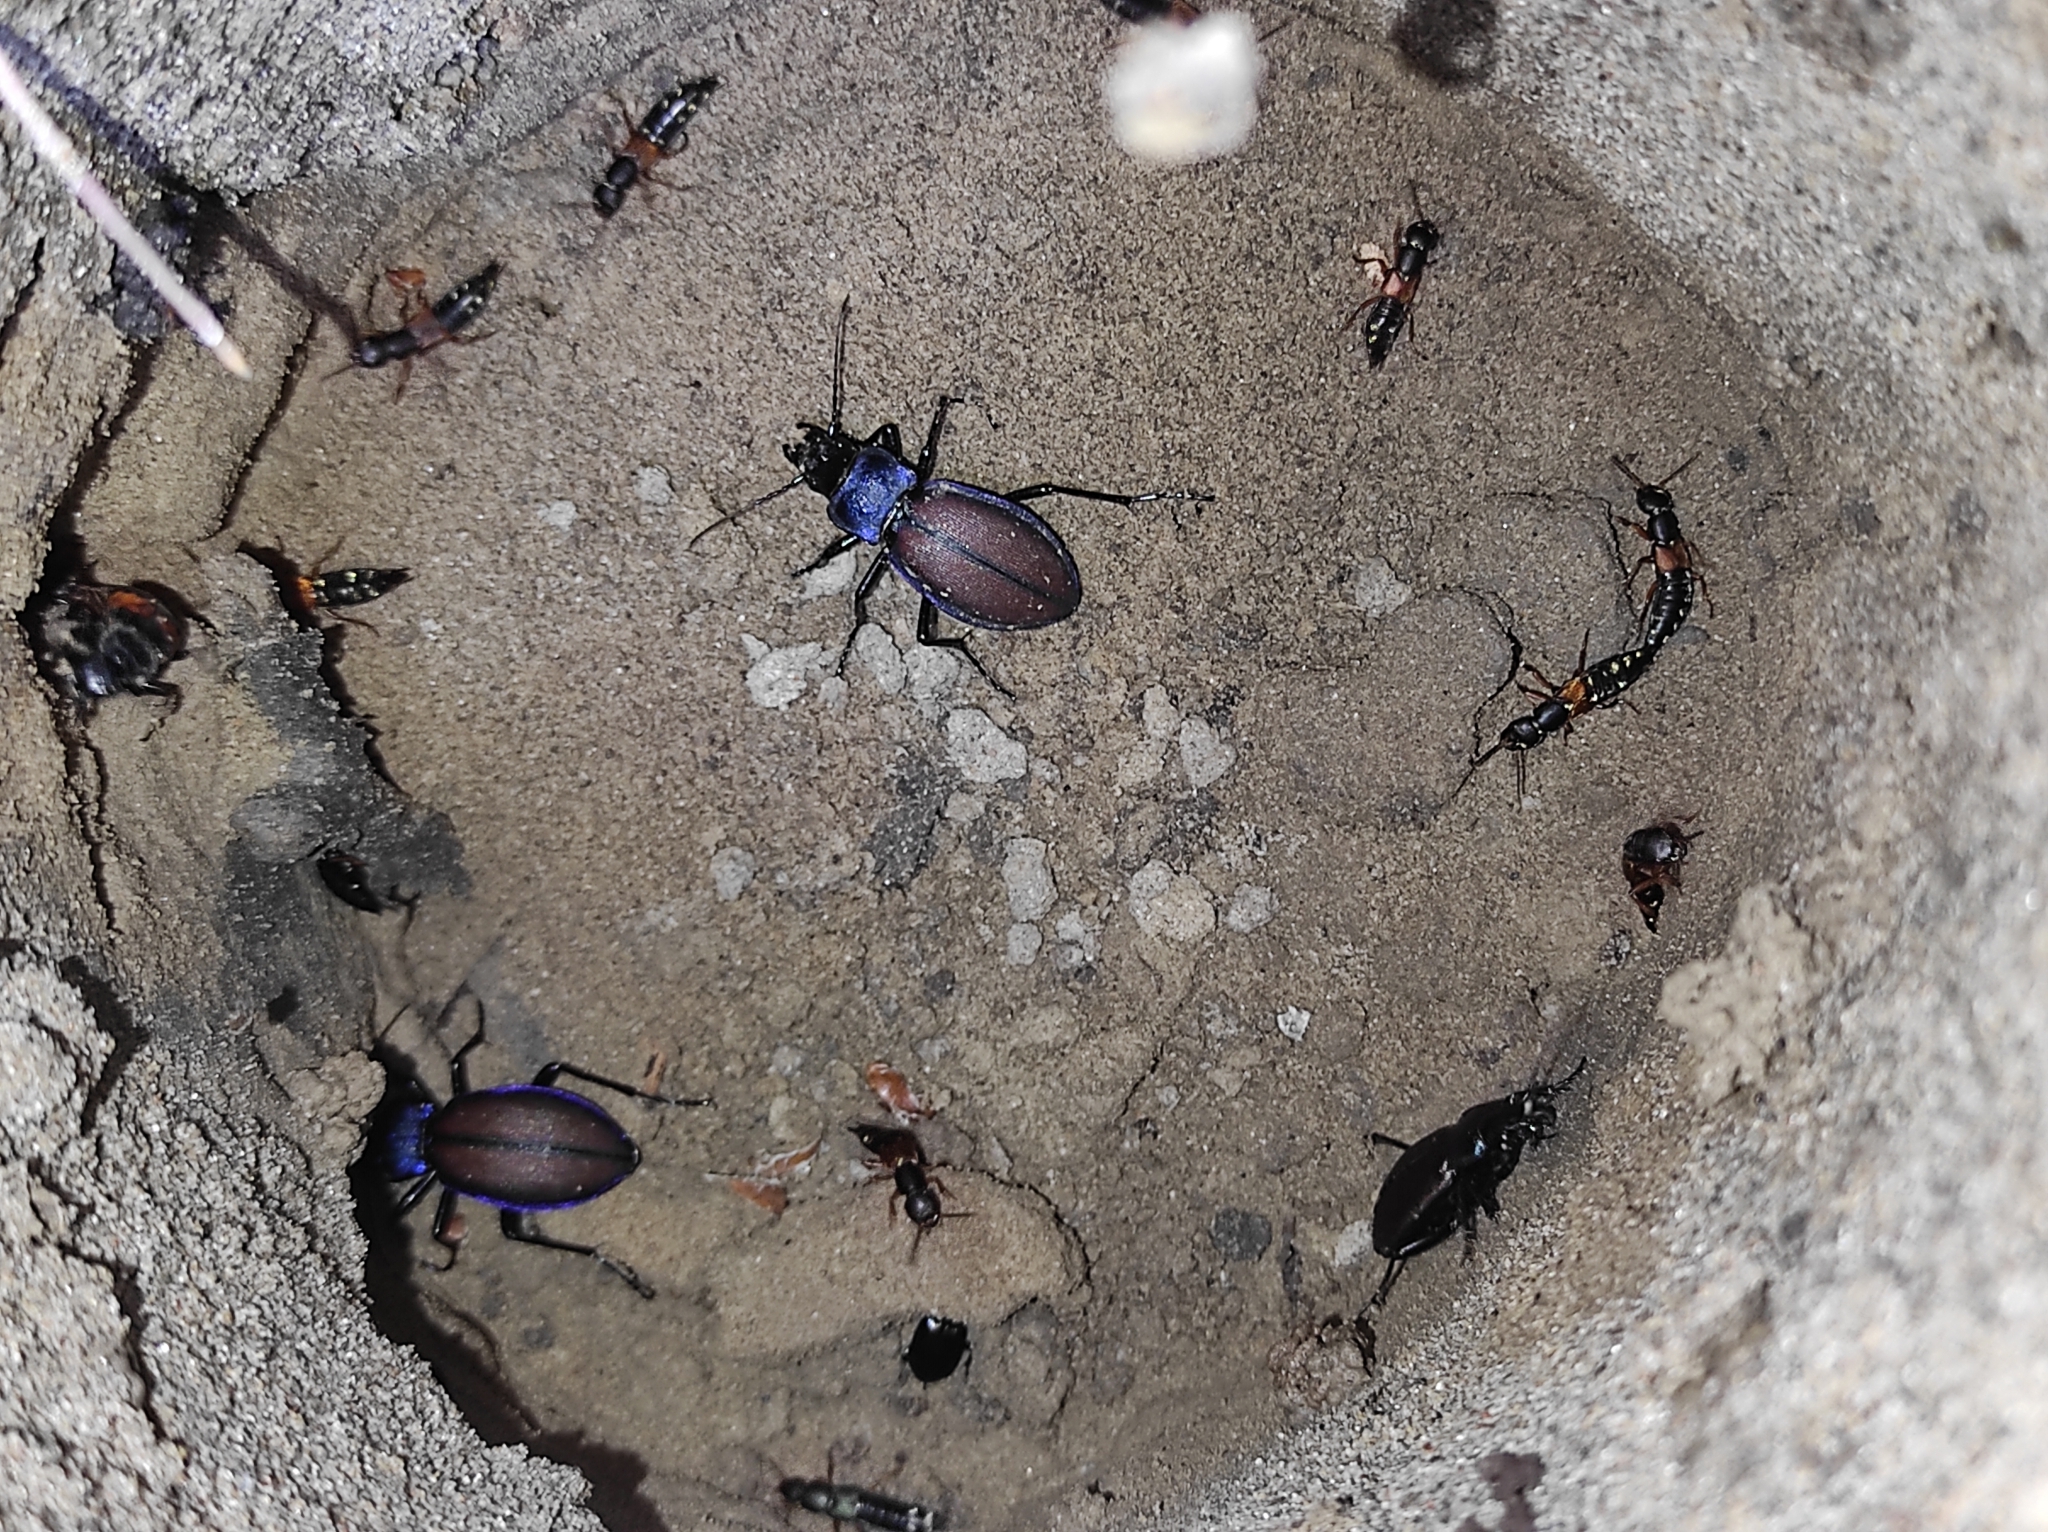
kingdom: Animalia
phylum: Arthropoda
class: Insecta
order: Coleoptera
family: Carabidae
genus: Carabus
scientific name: Carabus schoenherri
